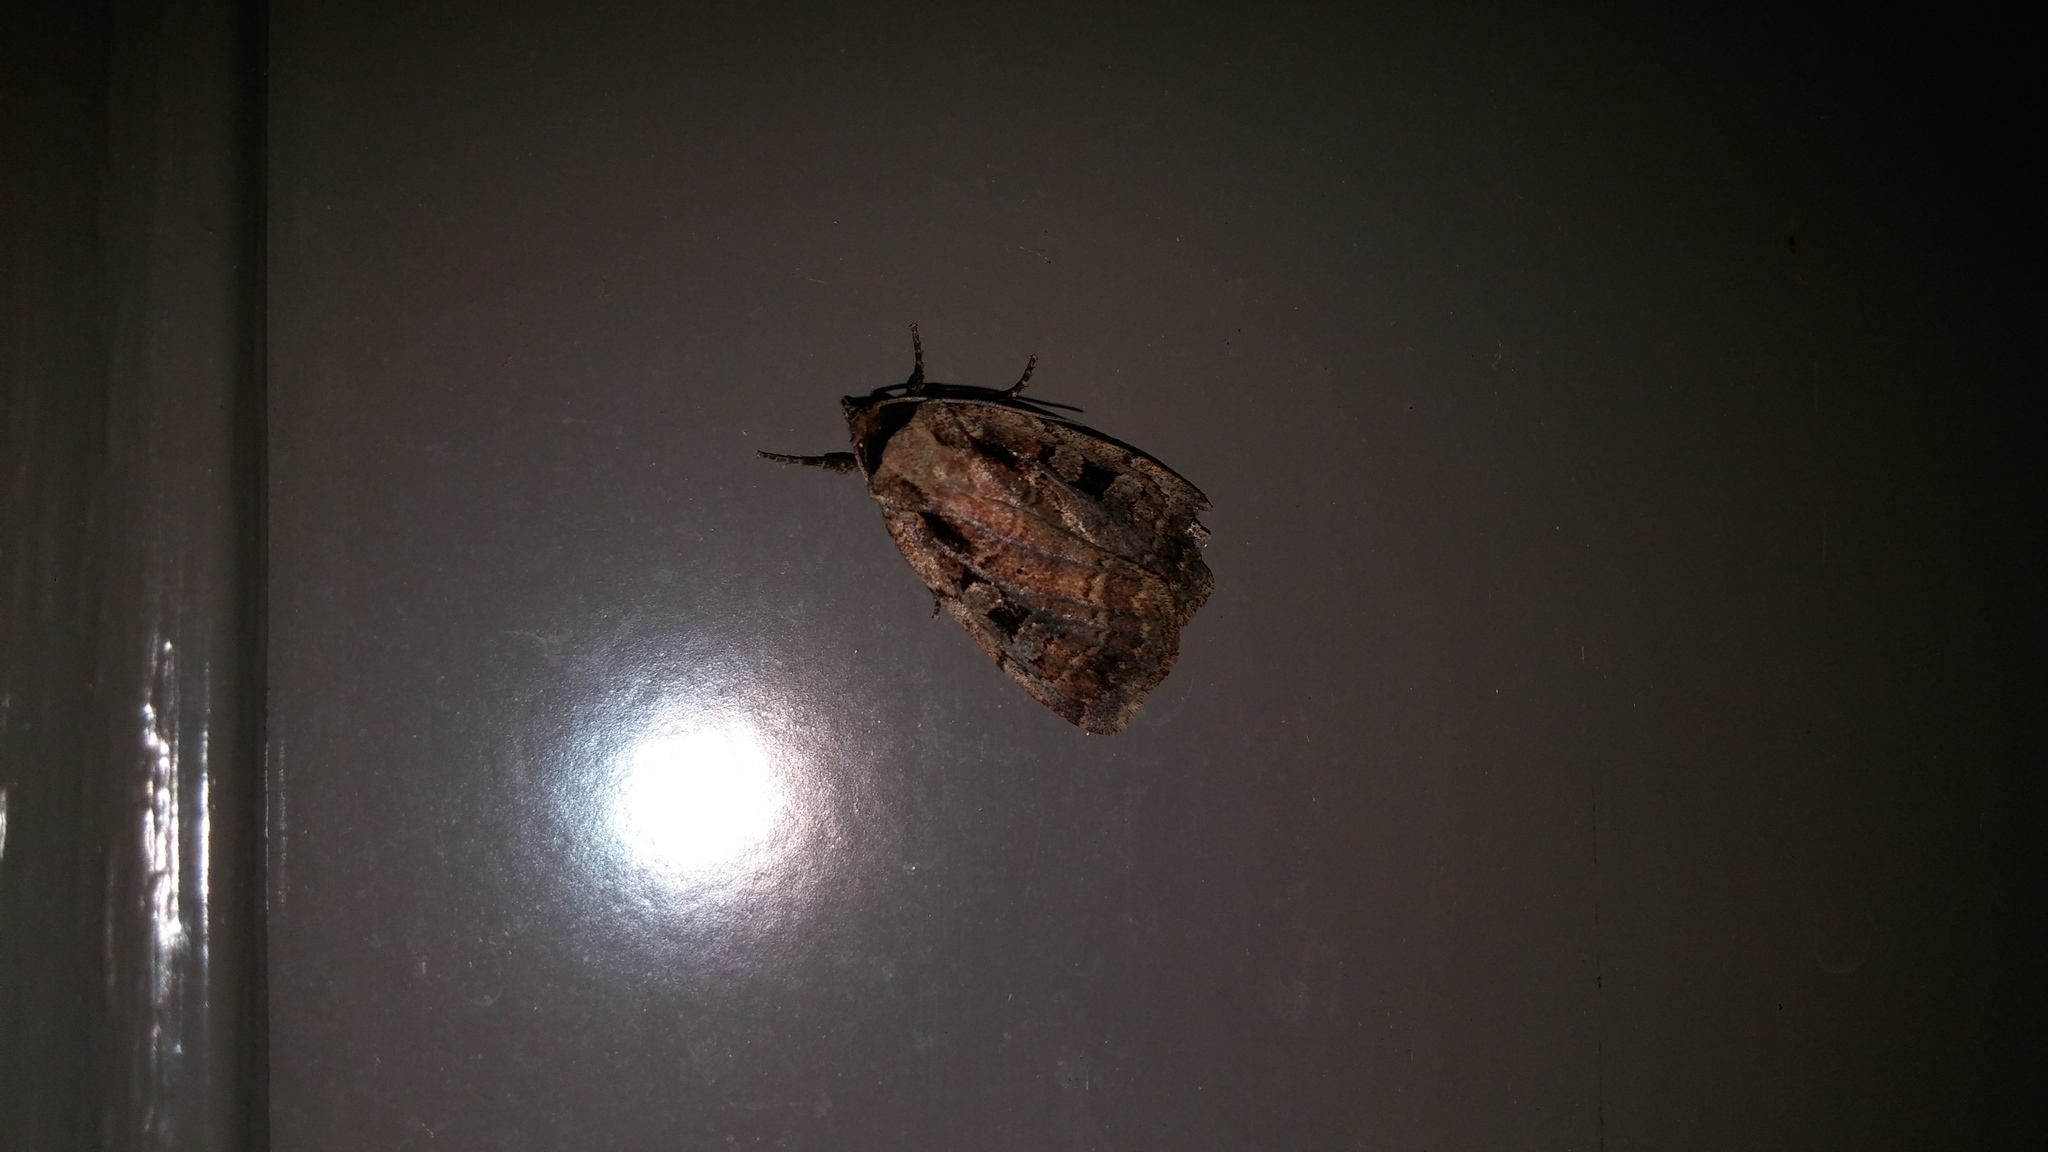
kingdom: Animalia
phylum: Arthropoda
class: Insecta
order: Lepidoptera
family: Noctuidae
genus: Eueretagrotis
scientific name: Eueretagrotis perattentus
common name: Two-spot dart moth
